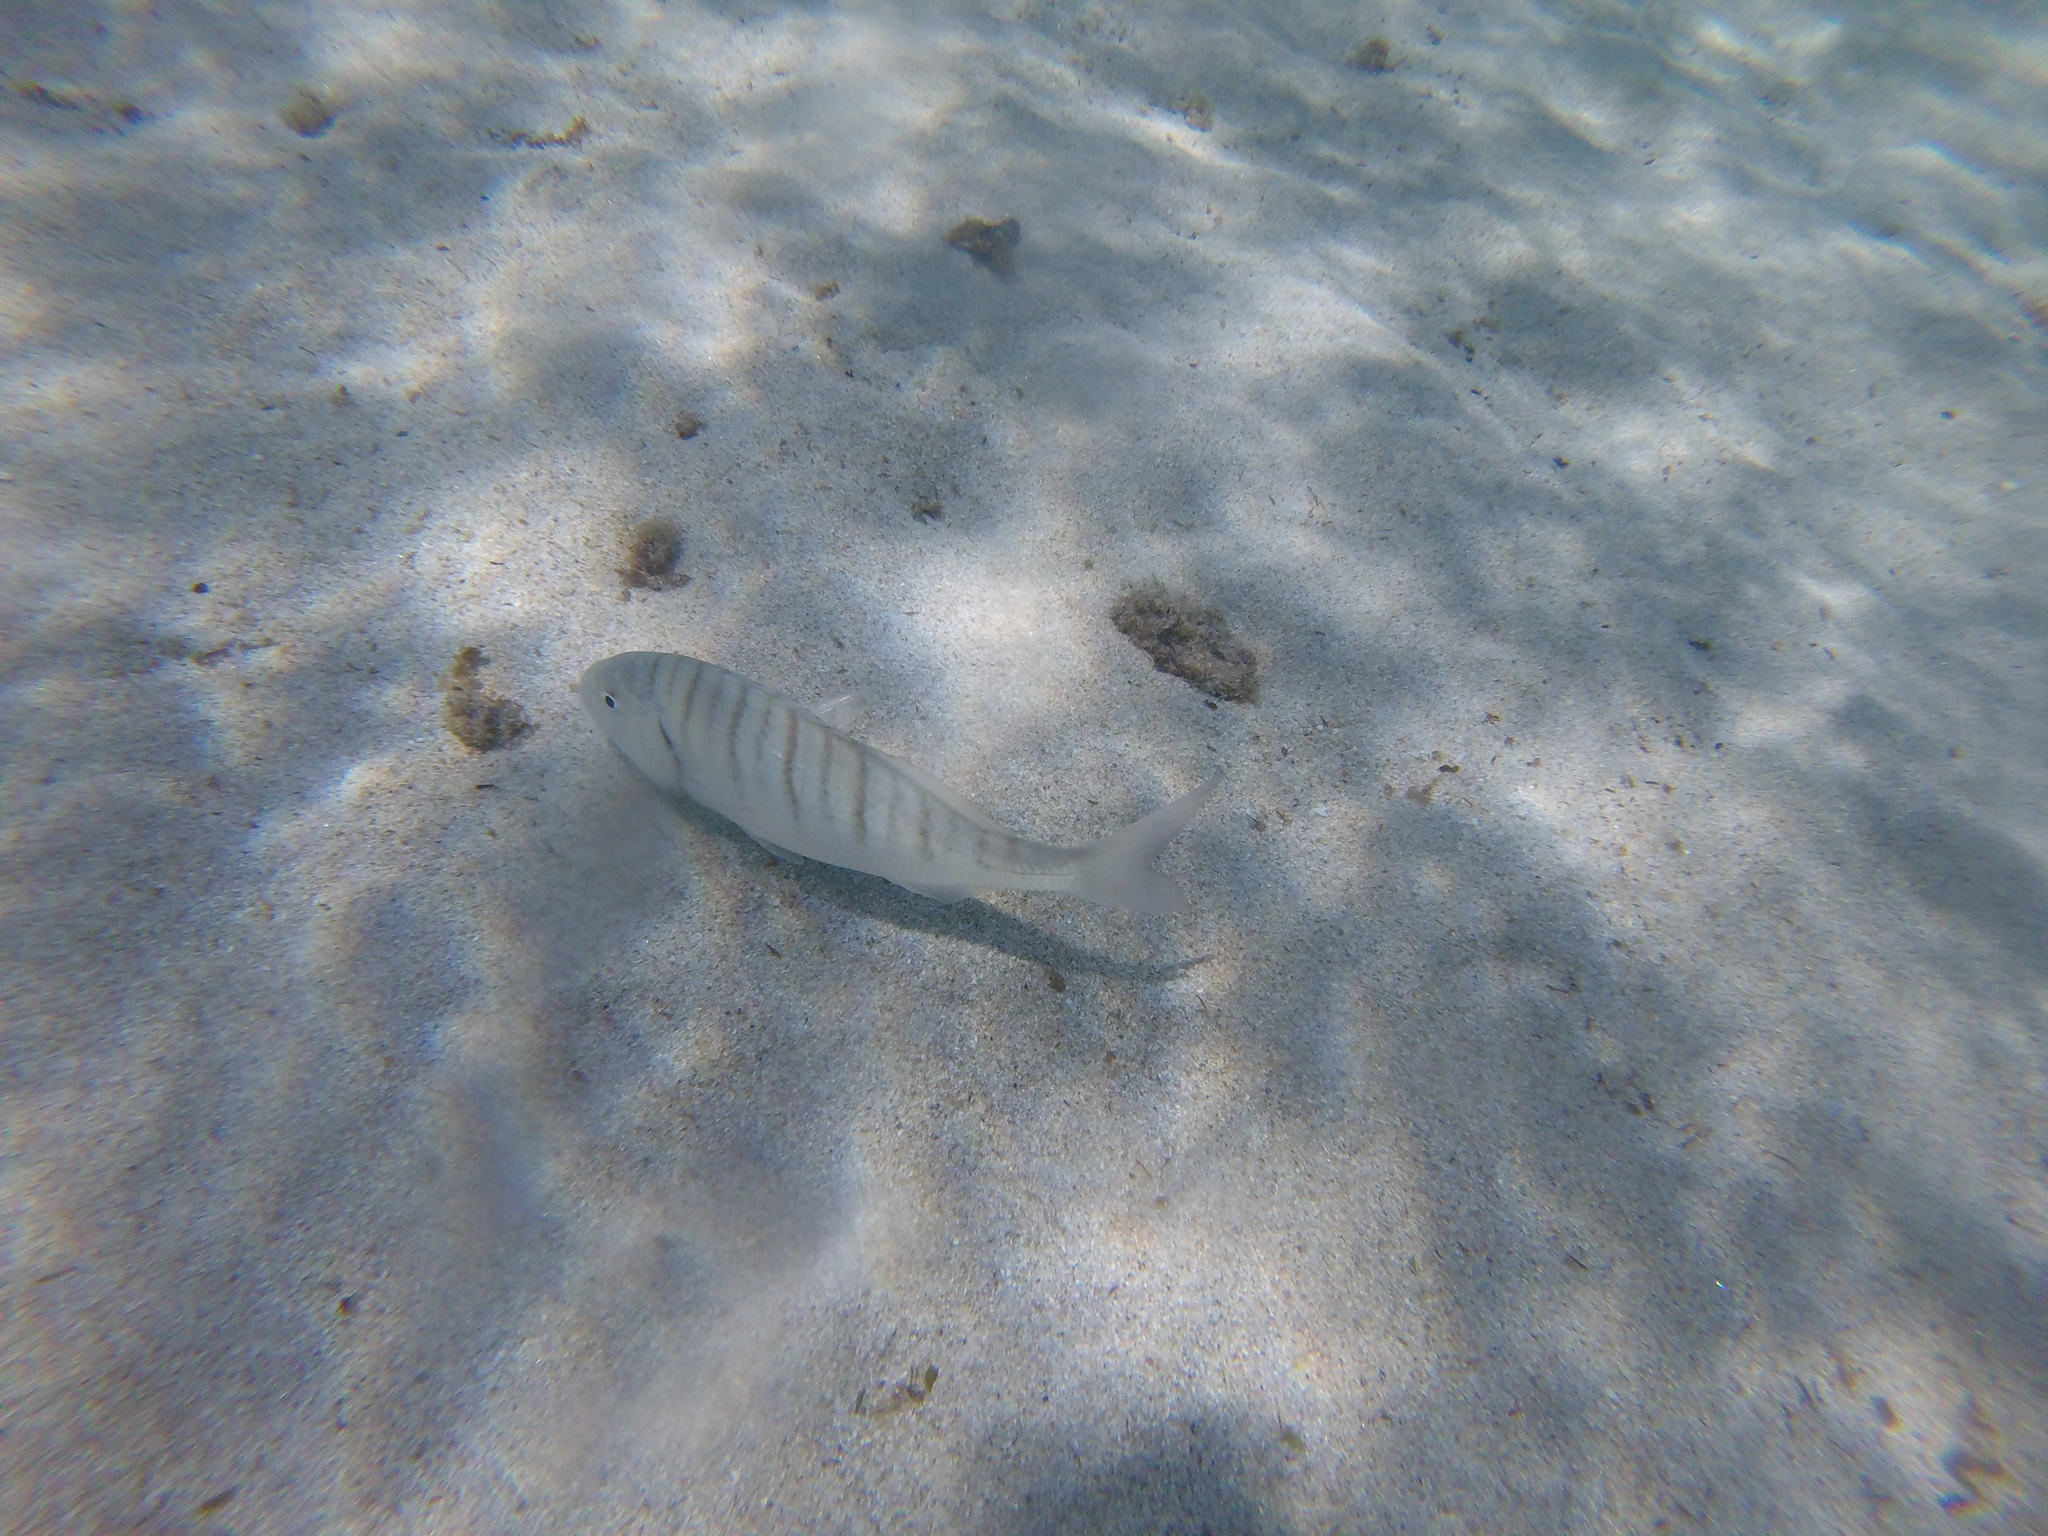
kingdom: Animalia
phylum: Chordata
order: Perciformes
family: Sparidae
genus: Lithognathus
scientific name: Lithognathus mormyrus
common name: Sand steenbras
